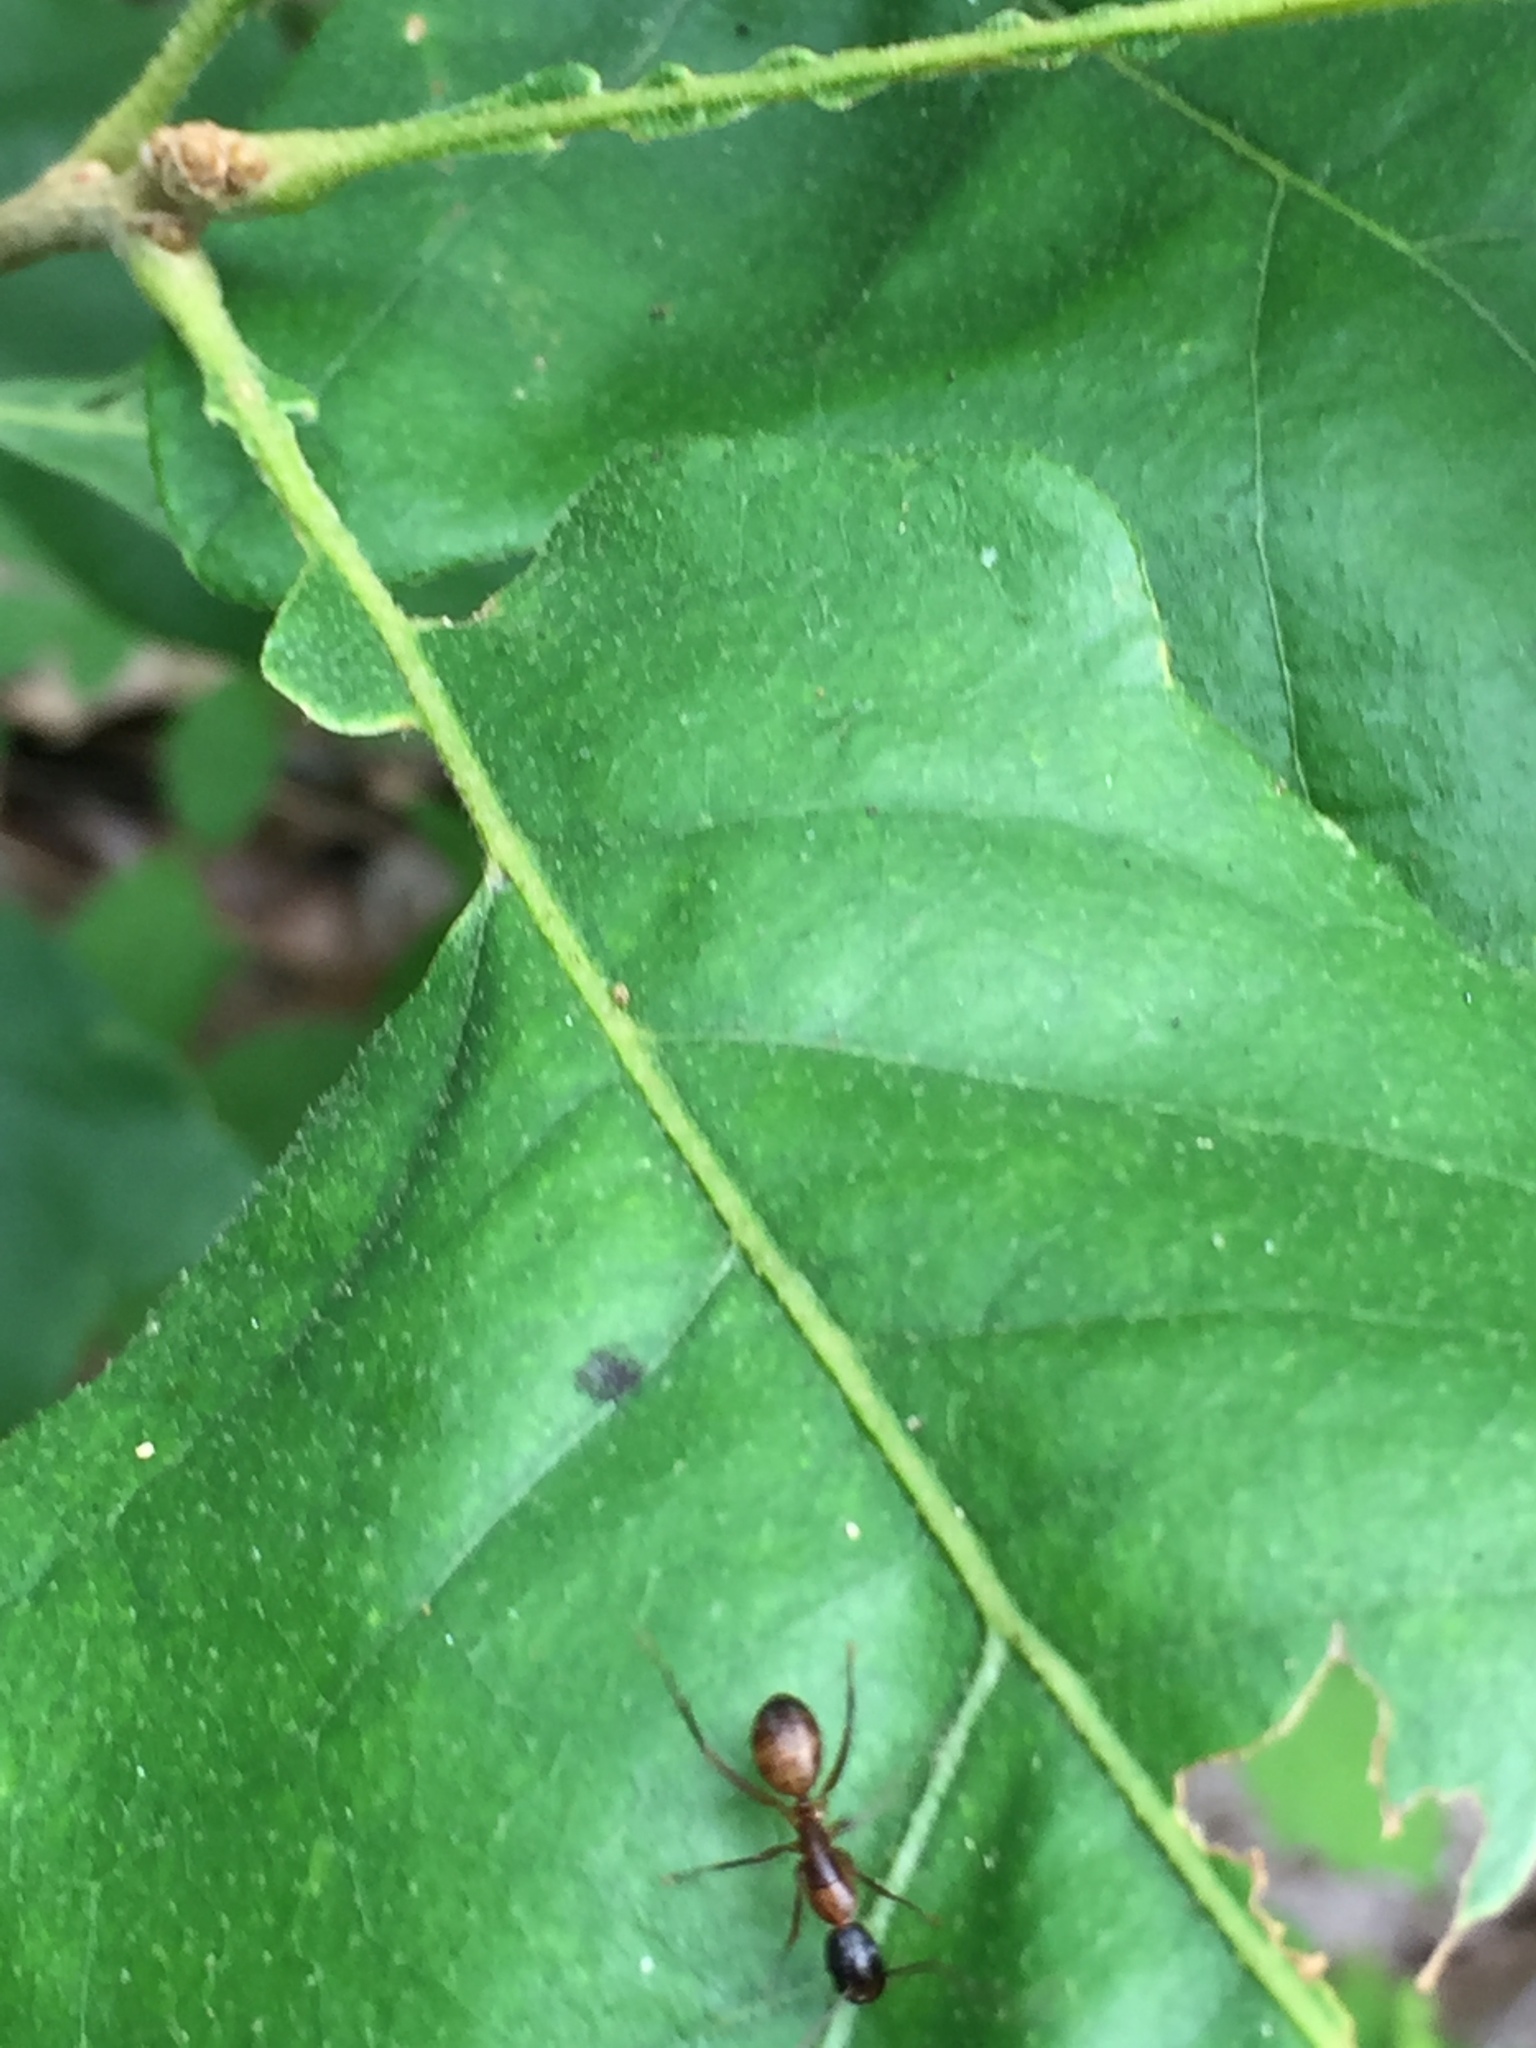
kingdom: Animalia
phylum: Arthropoda
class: Insecta
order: Hymenoptera
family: Formicidae
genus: Camponotus
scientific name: Camponotus americanus
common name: American carpenter ant
